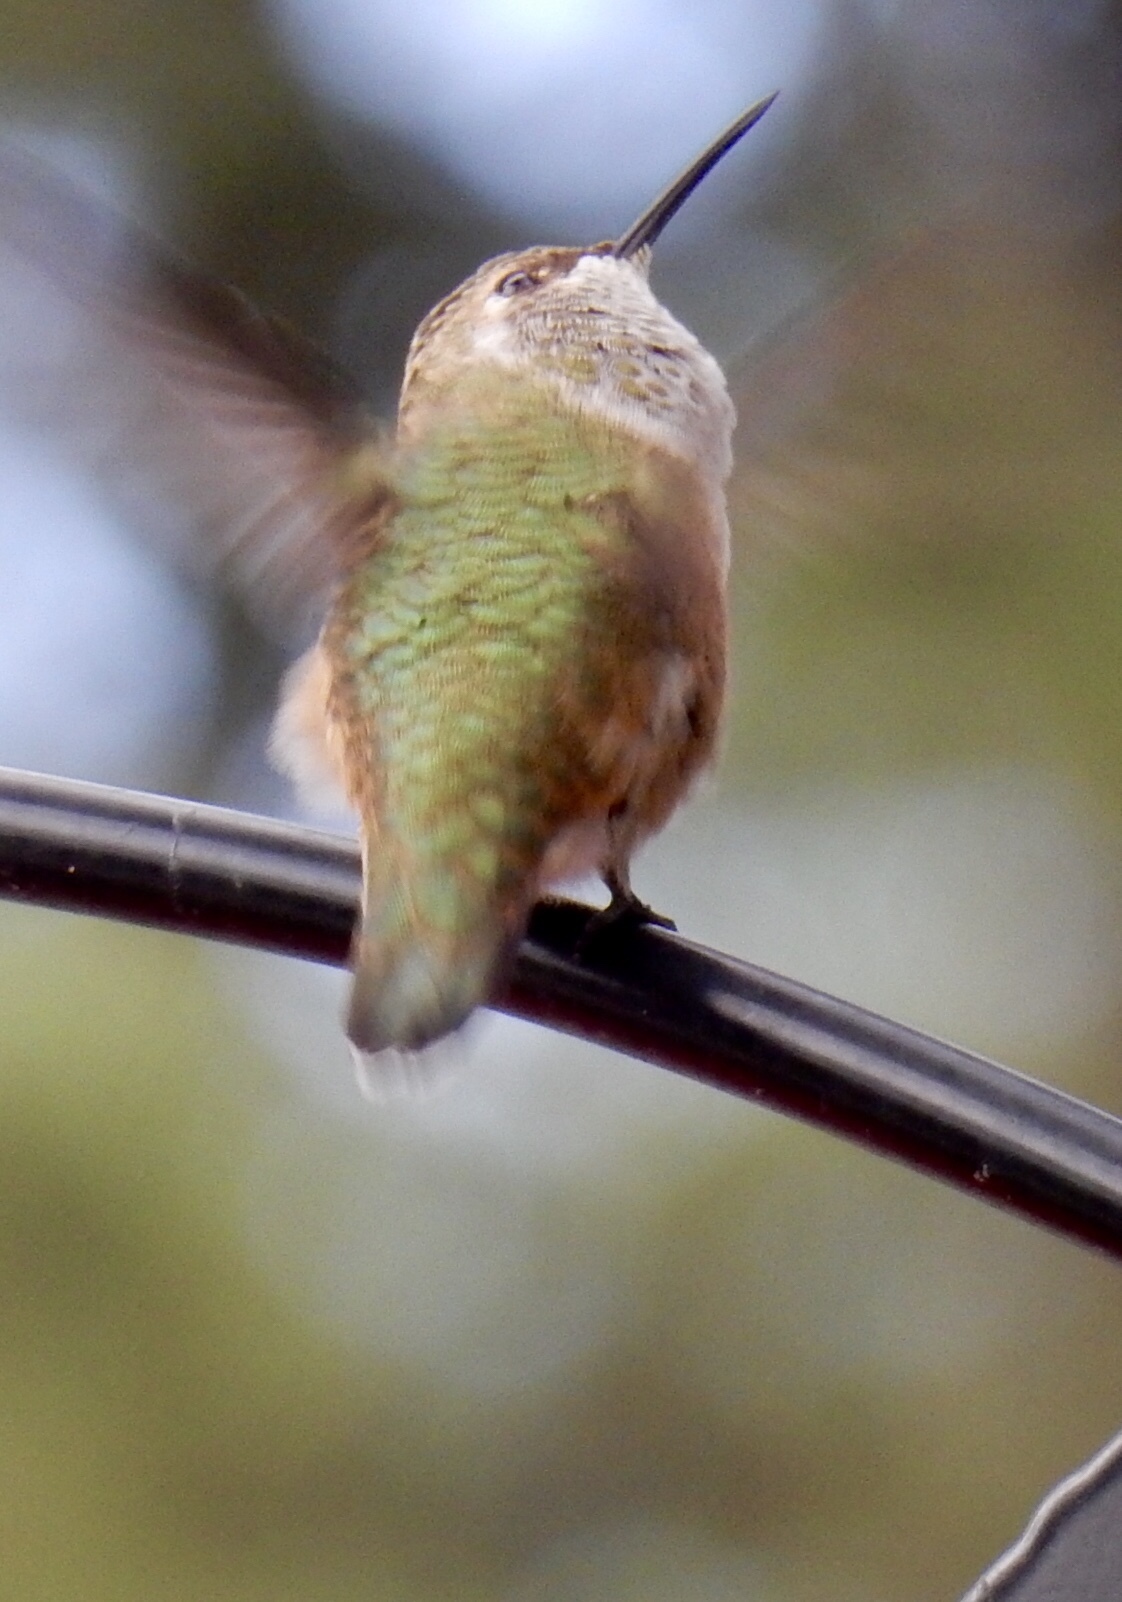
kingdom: Animalia
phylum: Chordata
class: Aves
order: Apodiformes
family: Trochilidae
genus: Selasphorus
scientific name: Selasphorus rufus
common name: Rufous hummingbird
